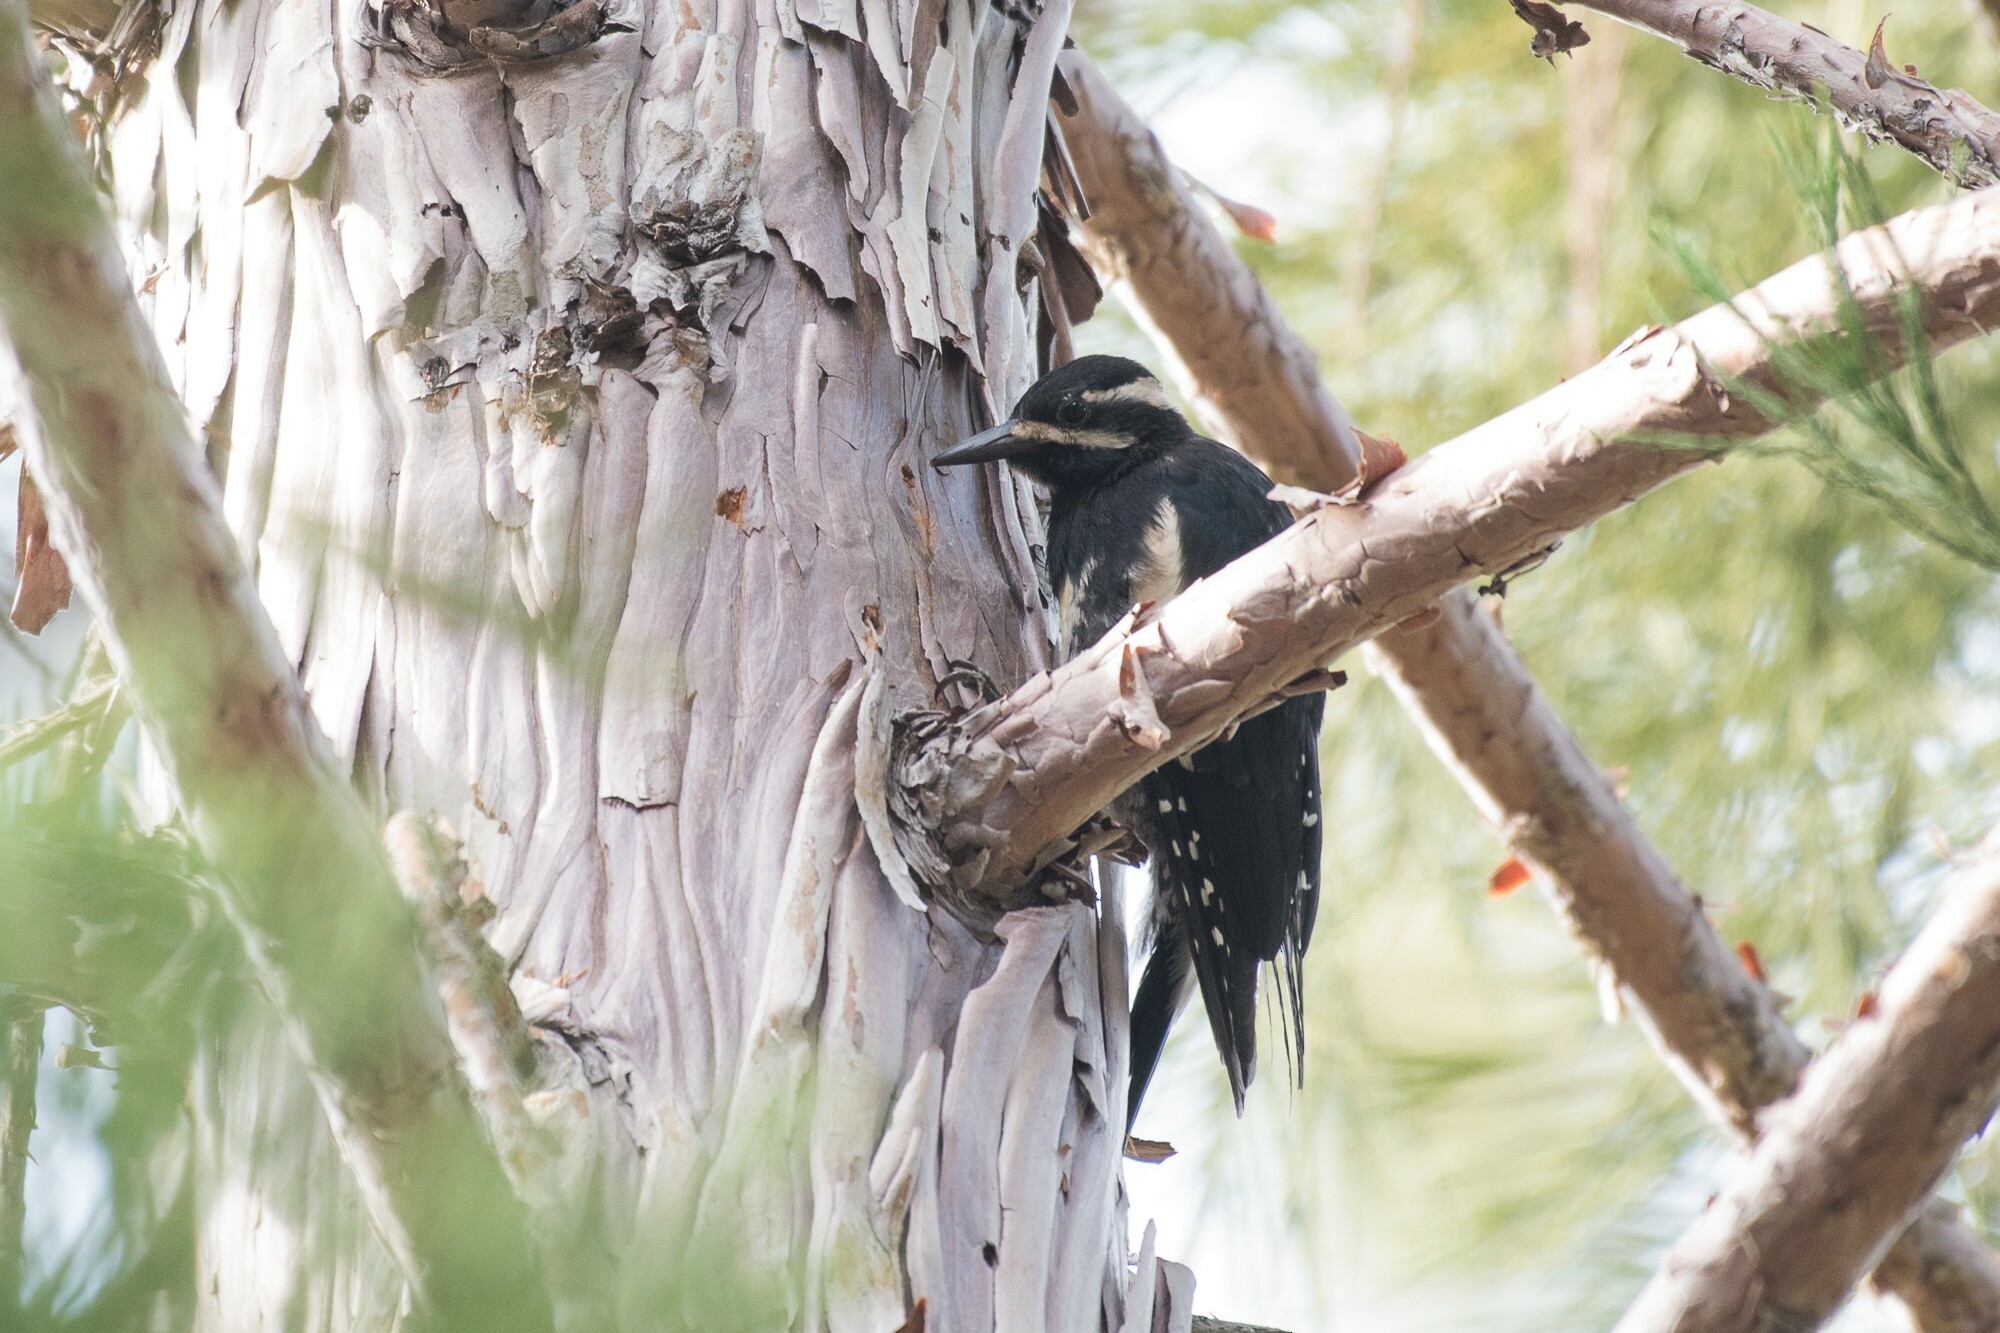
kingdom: Animalia
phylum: Chordata
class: Aves
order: Piciformes
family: Picidae
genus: Sphyrapicus
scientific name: Sphyrapicus thyroideus
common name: Williamson's sapsucker
